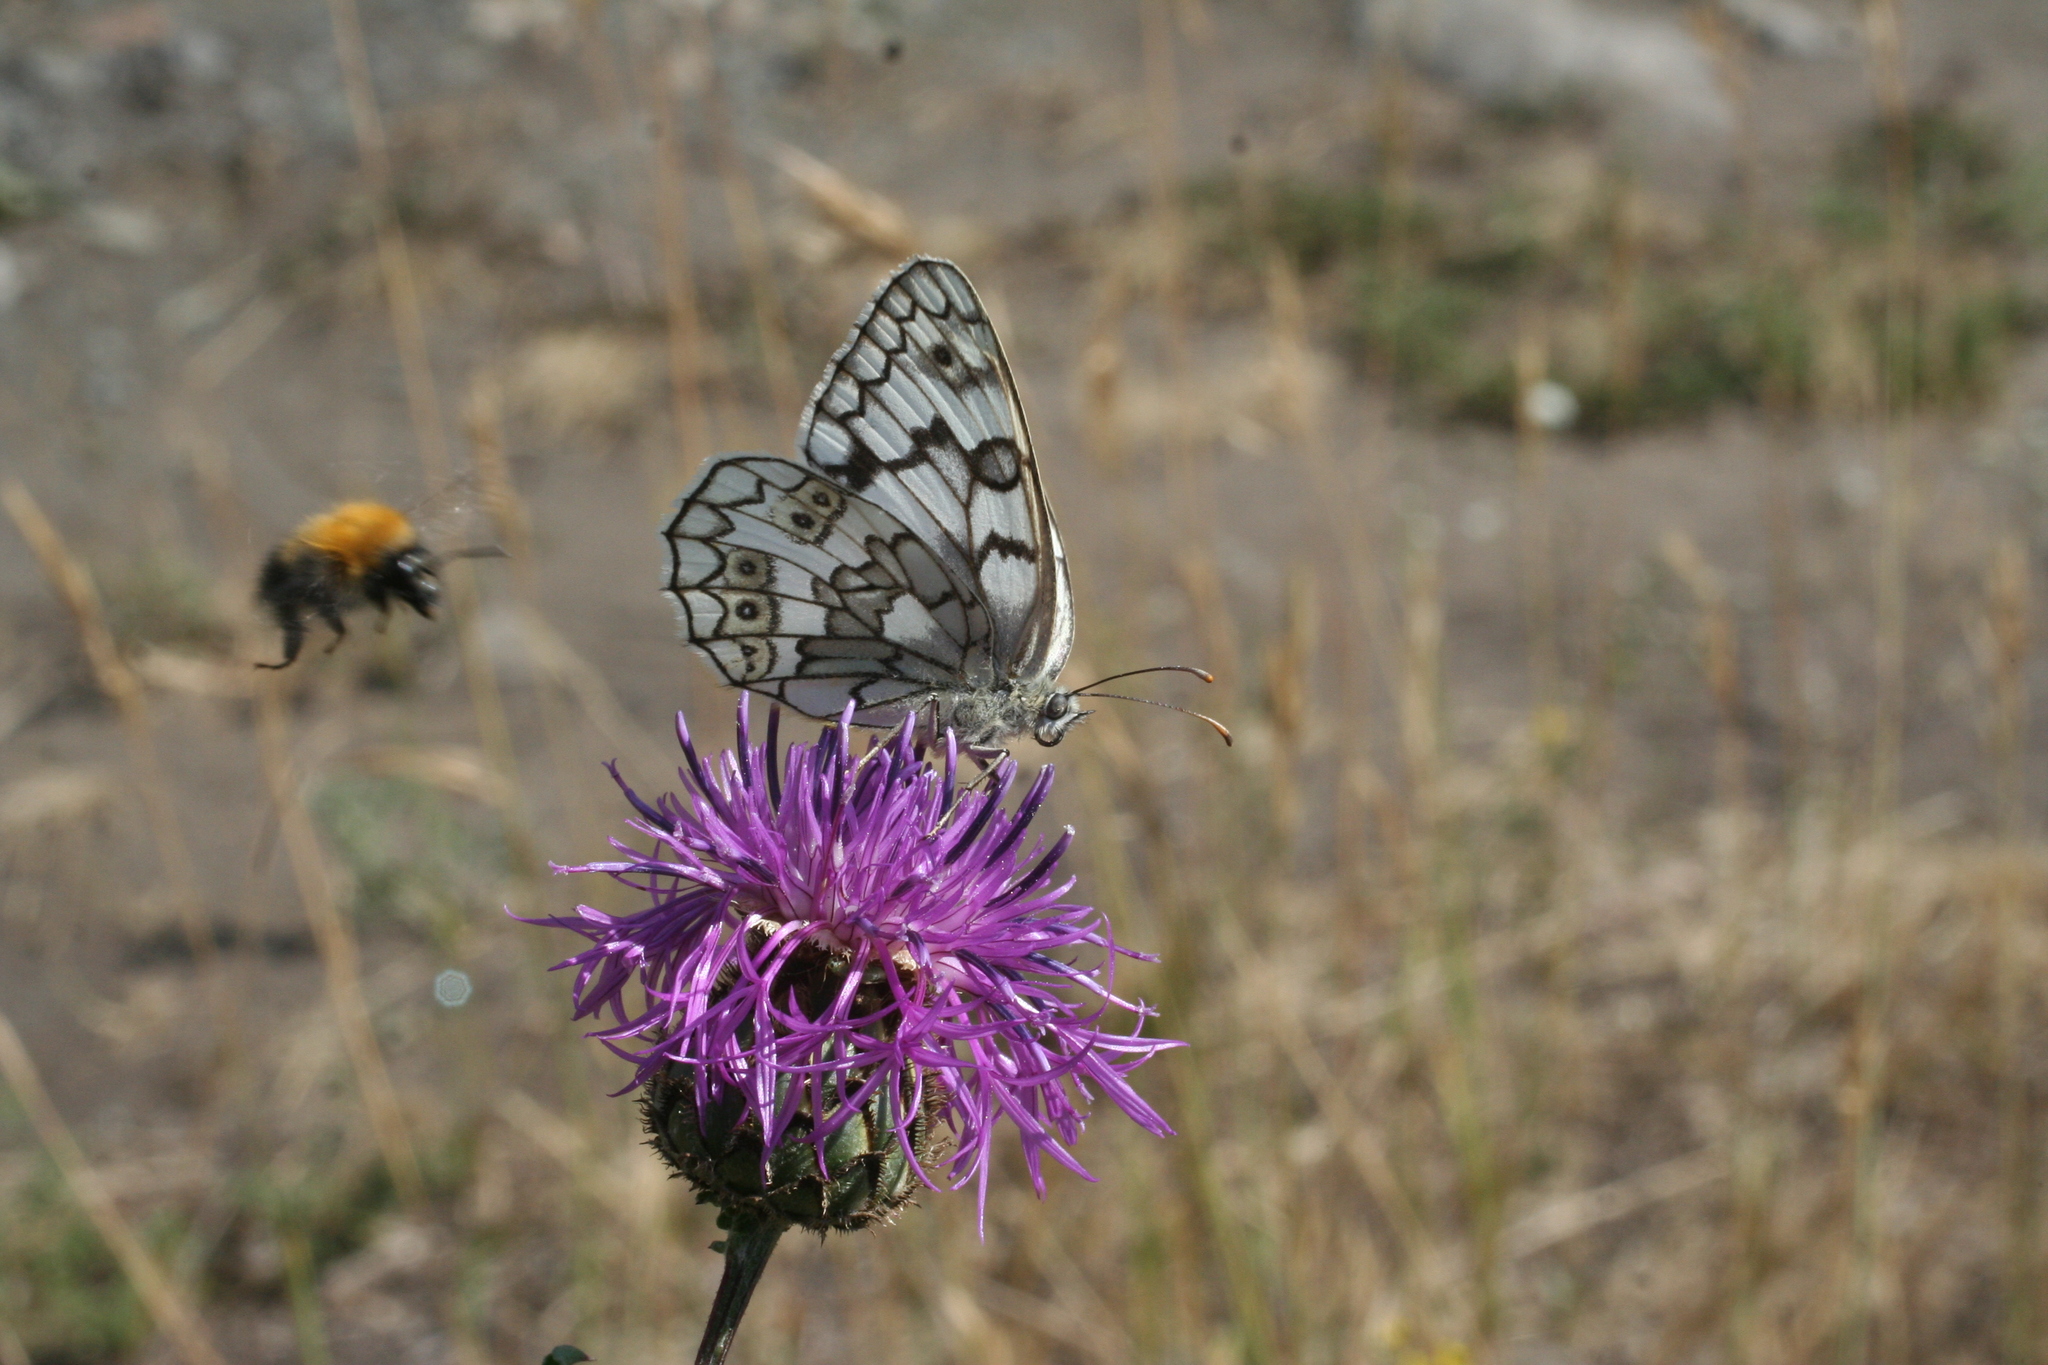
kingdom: Plantae
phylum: Tracheophyta
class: Magnoliopsida
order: Asterales
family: Asteraceae
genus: Centaurea
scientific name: Centaurea scabiosa
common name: Greater knapweed
